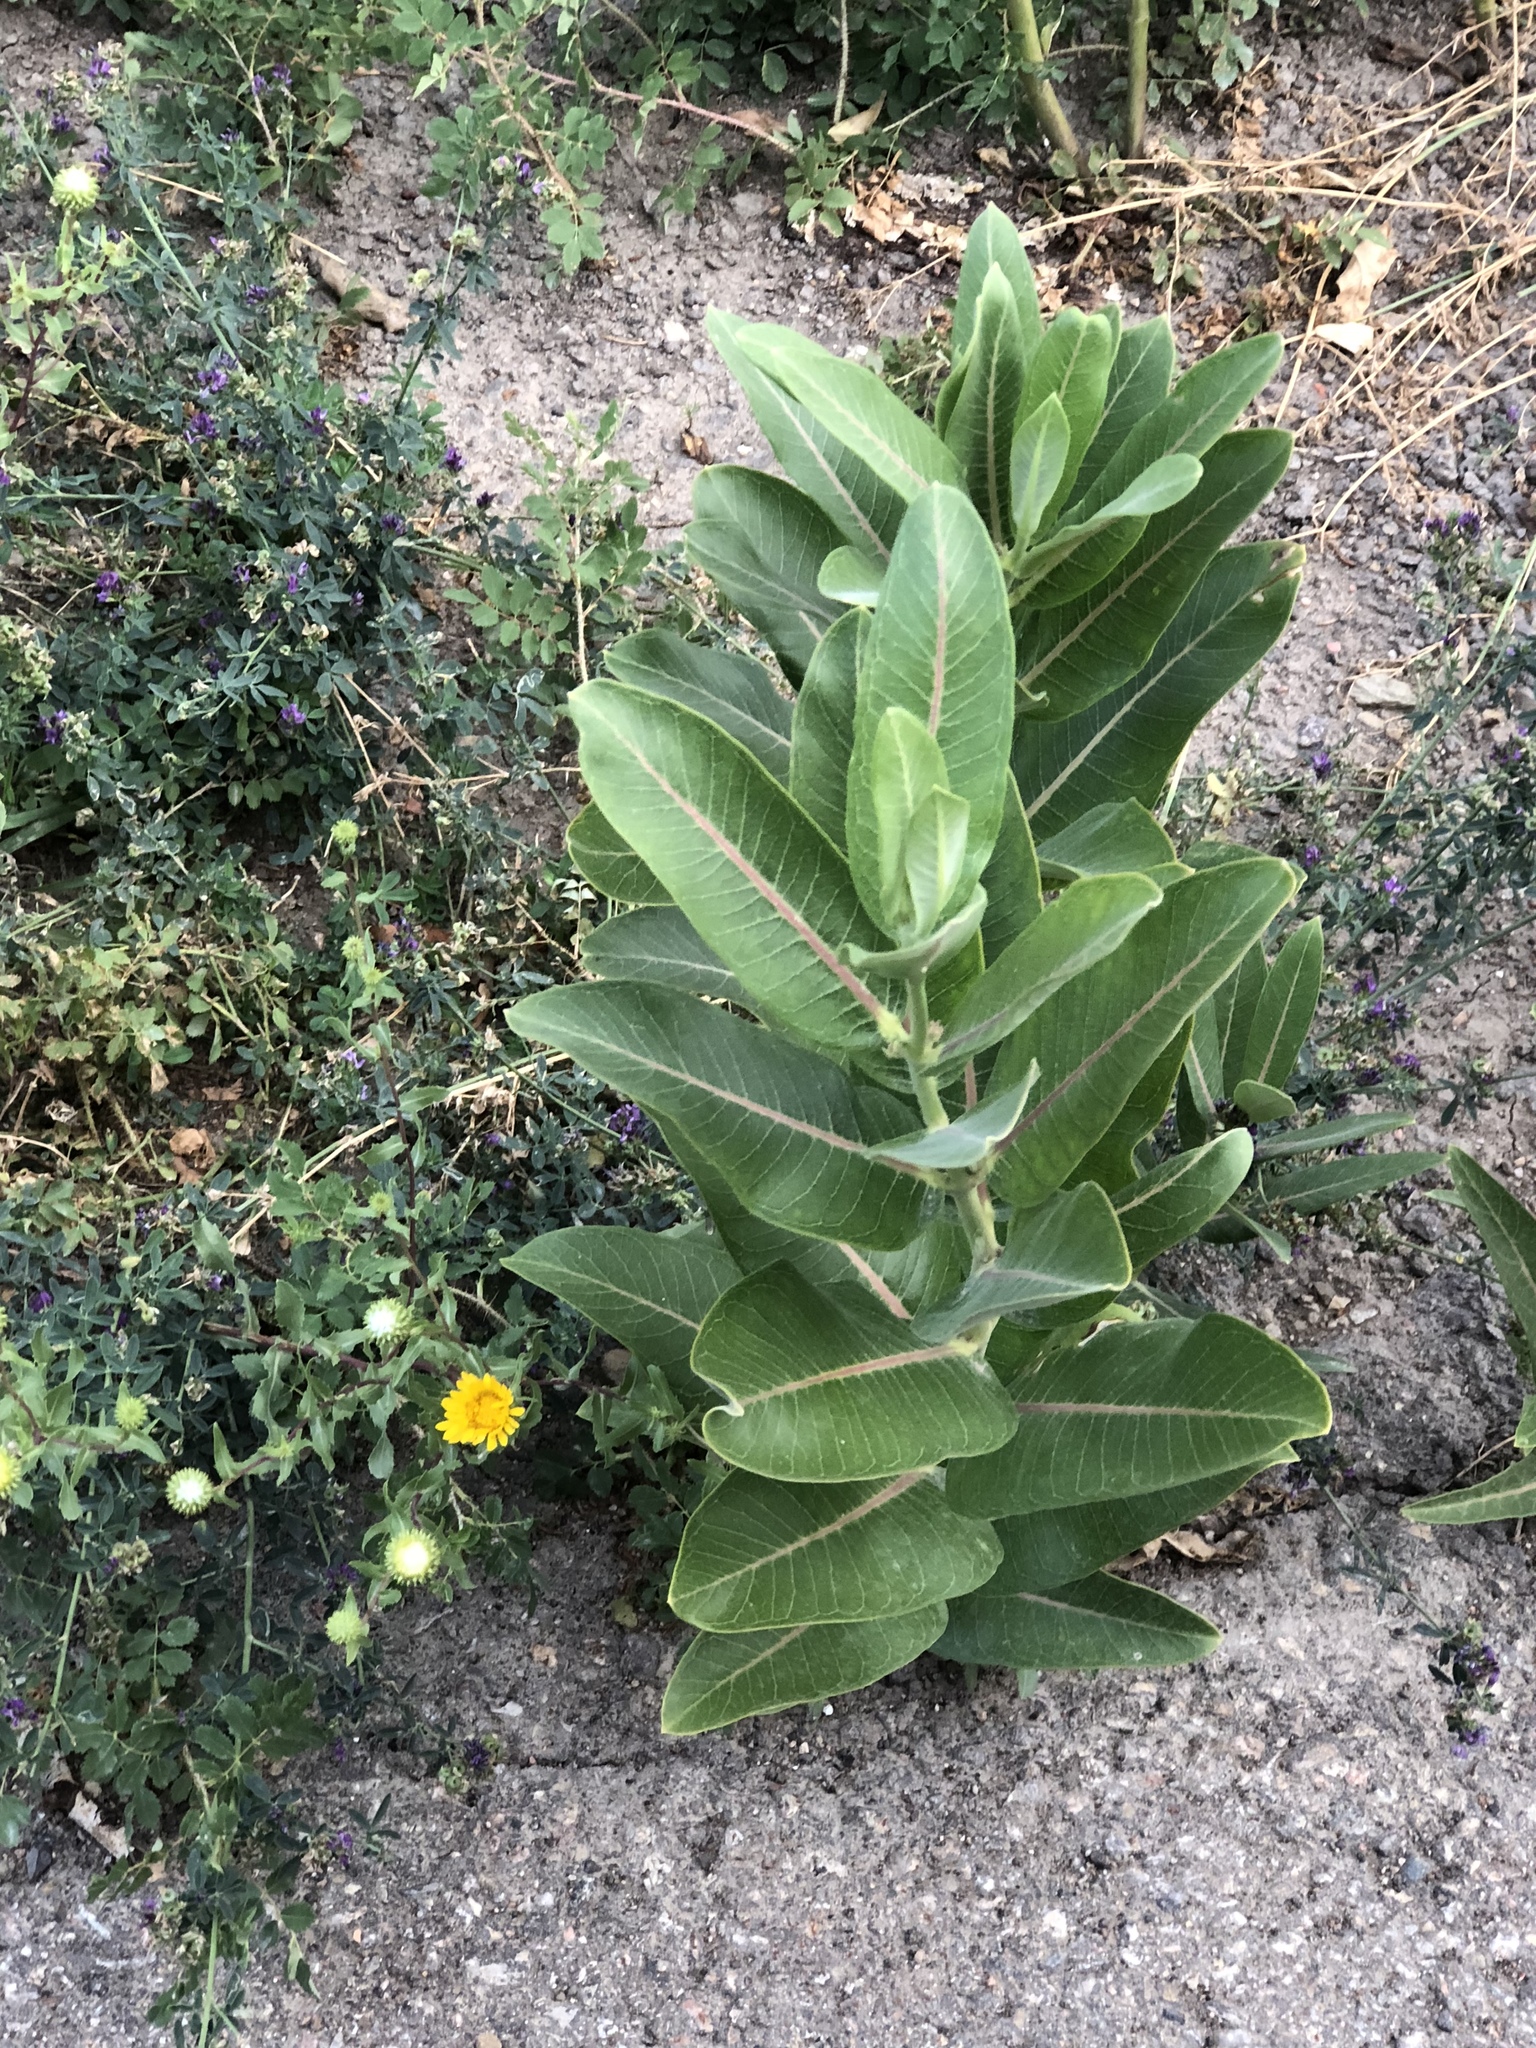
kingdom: Plantae
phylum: Tracheophyta
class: Magnoliopsida
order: Gentianales
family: Apocynaceae
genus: Asclepias
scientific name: Asclepias speciosa
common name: Showy milkweed
